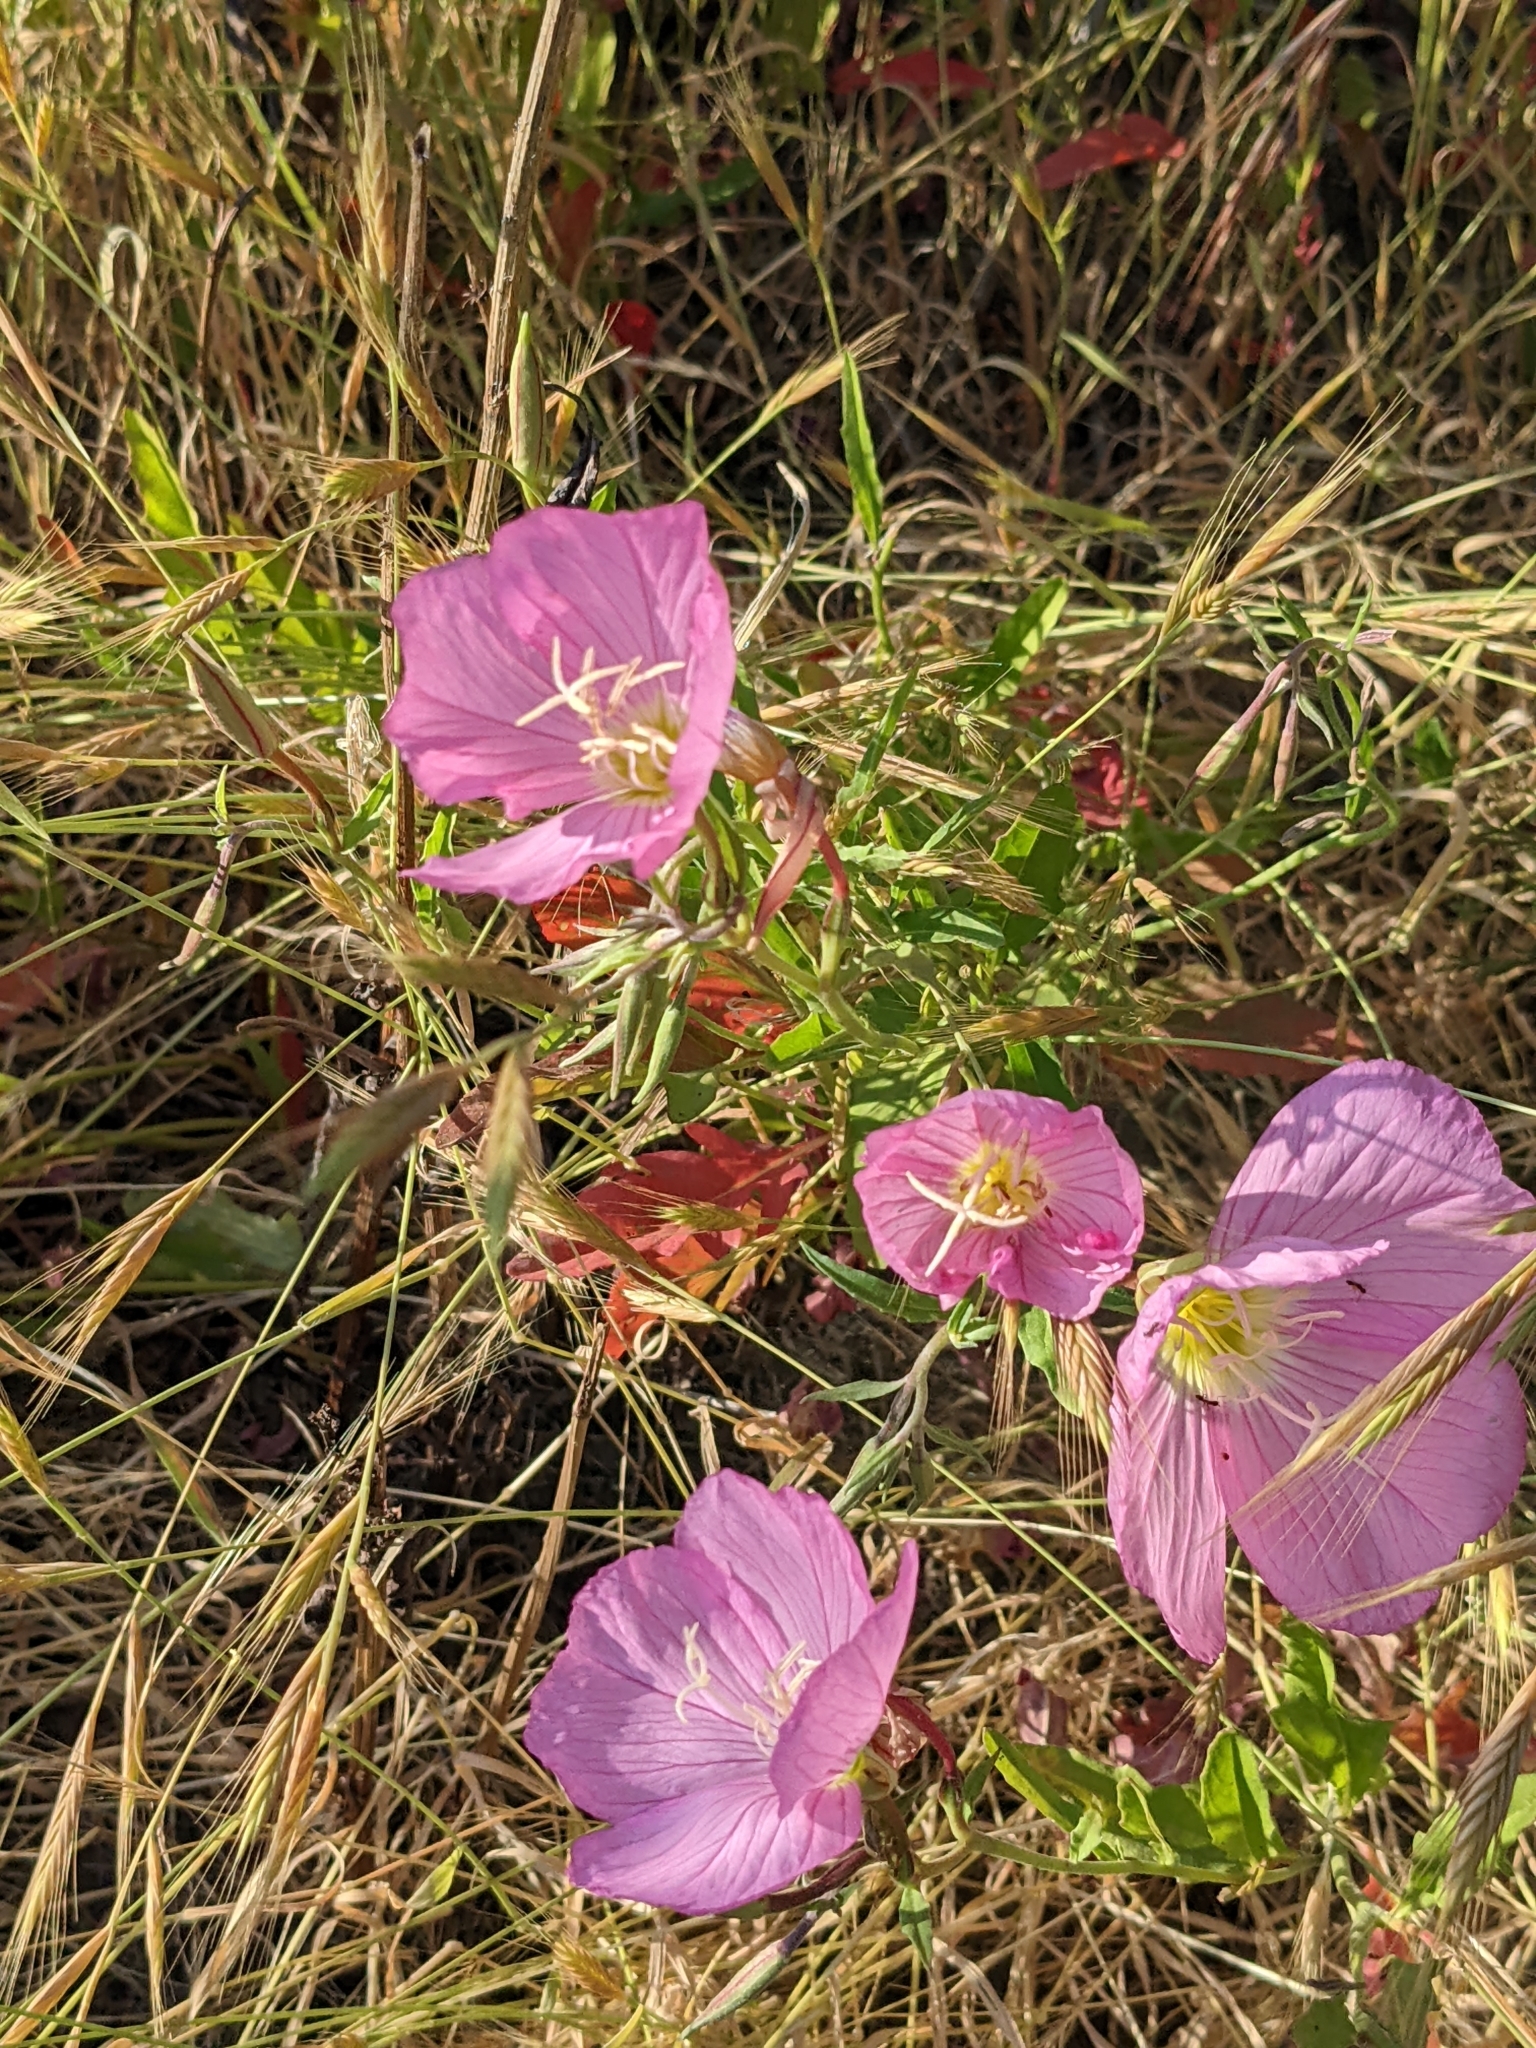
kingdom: Plantae
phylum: Tracheophyta
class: Magnoliopsida
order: Myrtales
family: Onagraceae
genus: Oenothera
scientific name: Oenothera speciosa
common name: White evening-primrose
